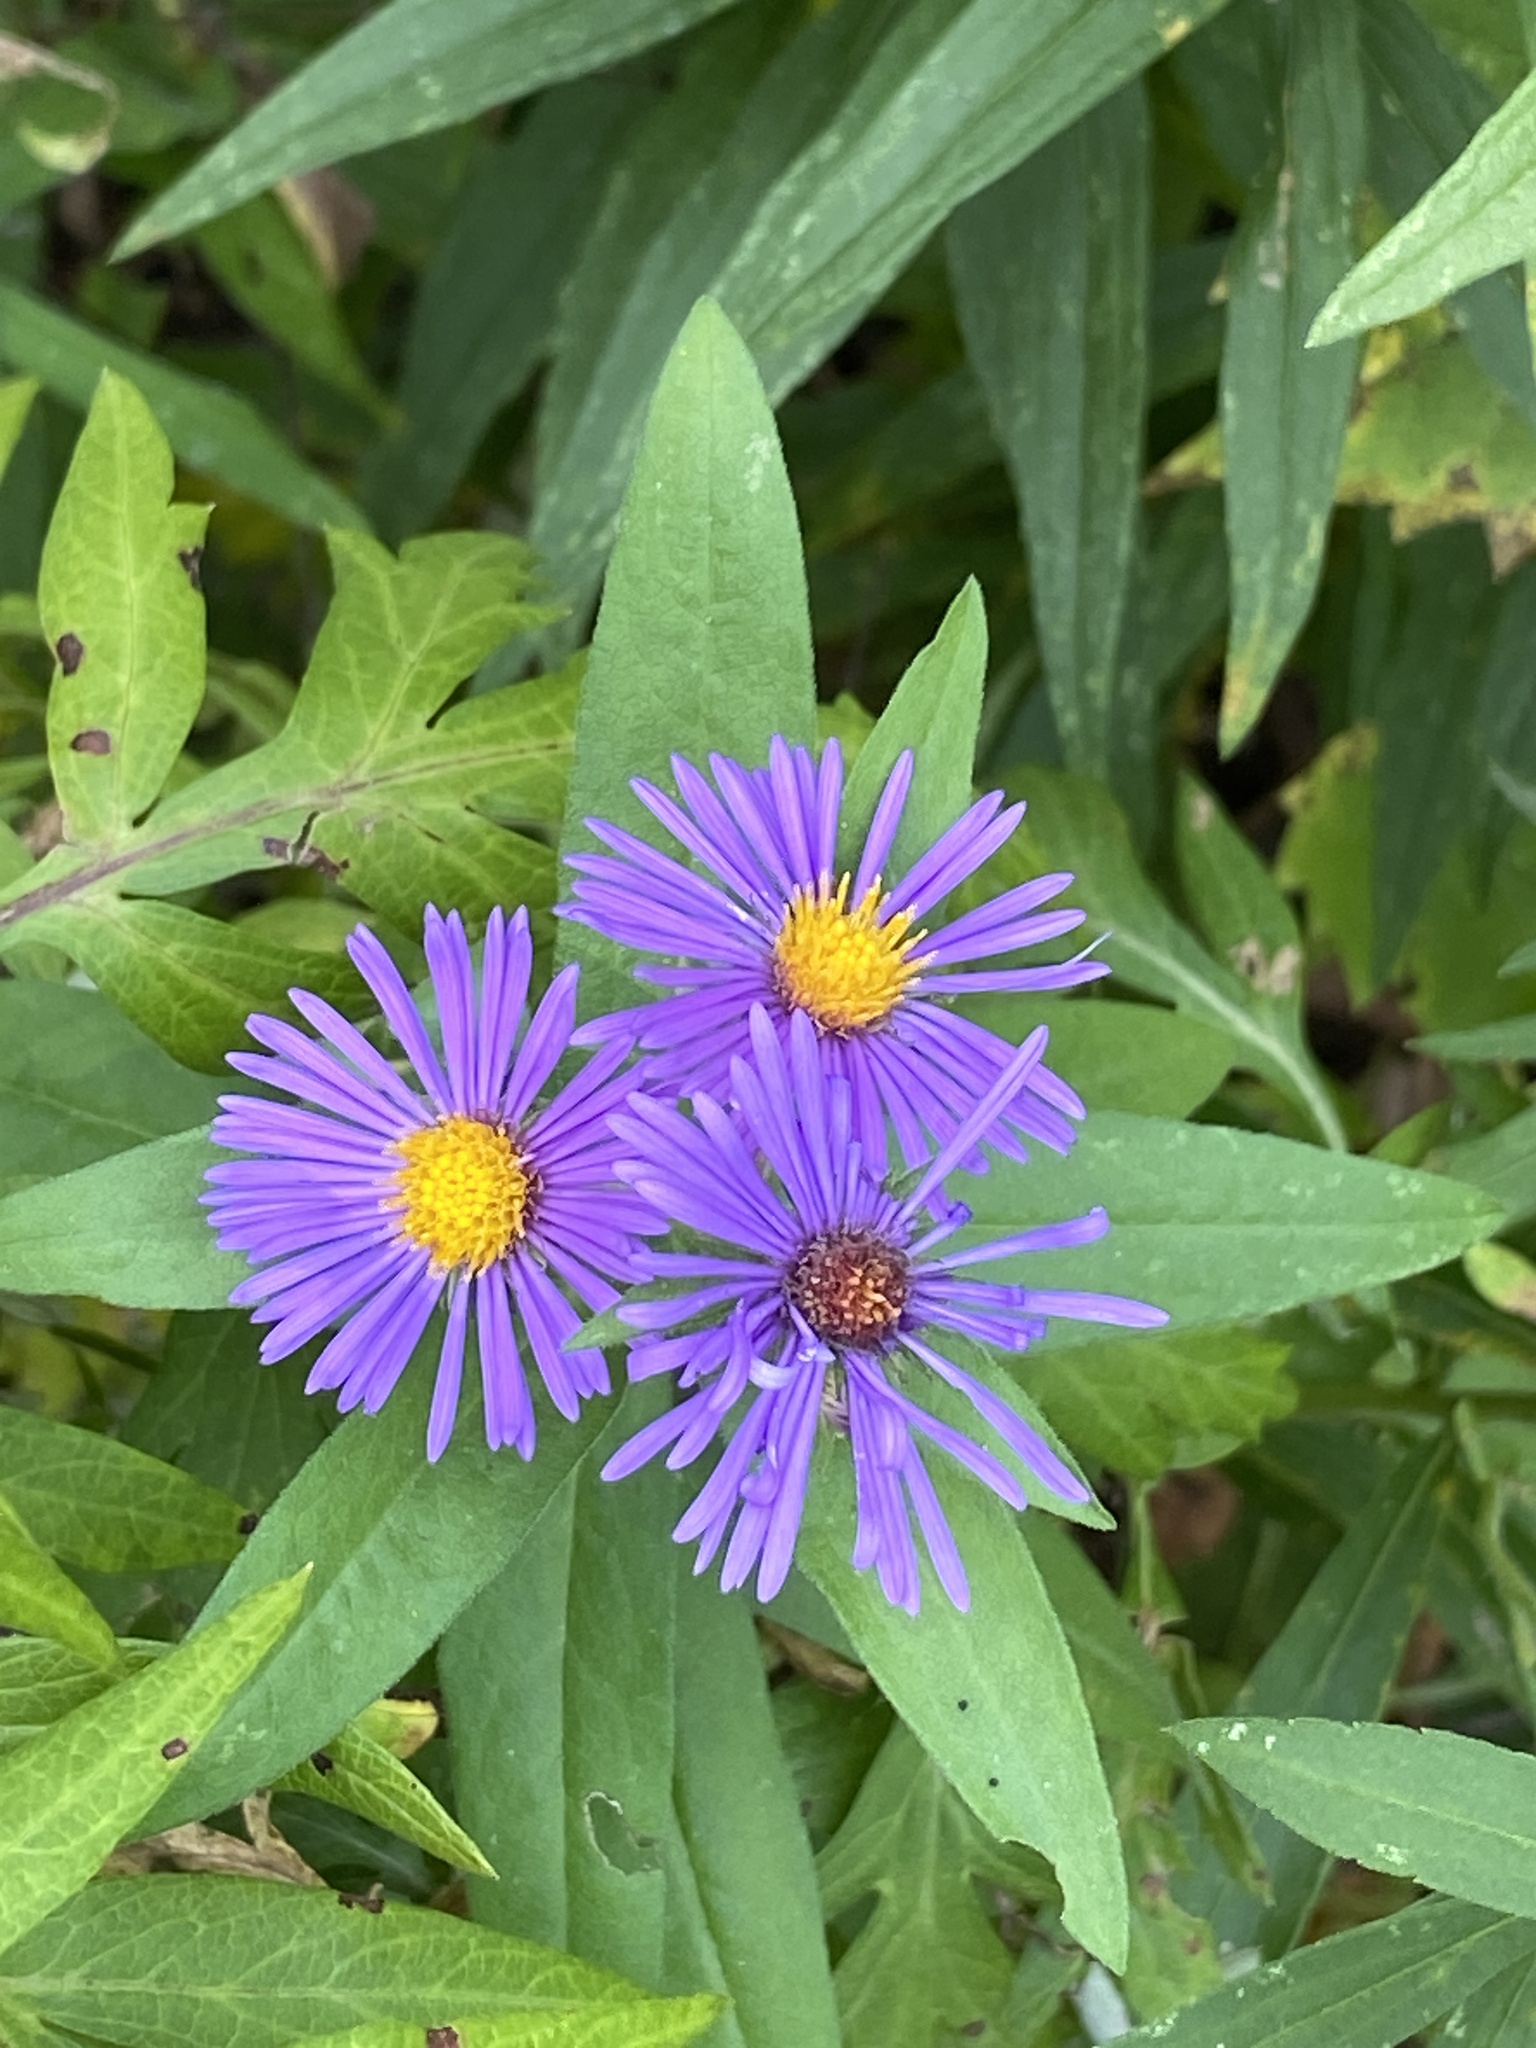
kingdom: Plantae
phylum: Tracheophyta
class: Magnoliopsida
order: Asterales
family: Asteraceae
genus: Symphyotrichum
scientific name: Symphyotrichum novae-angliae
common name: Michaelmas daisy
